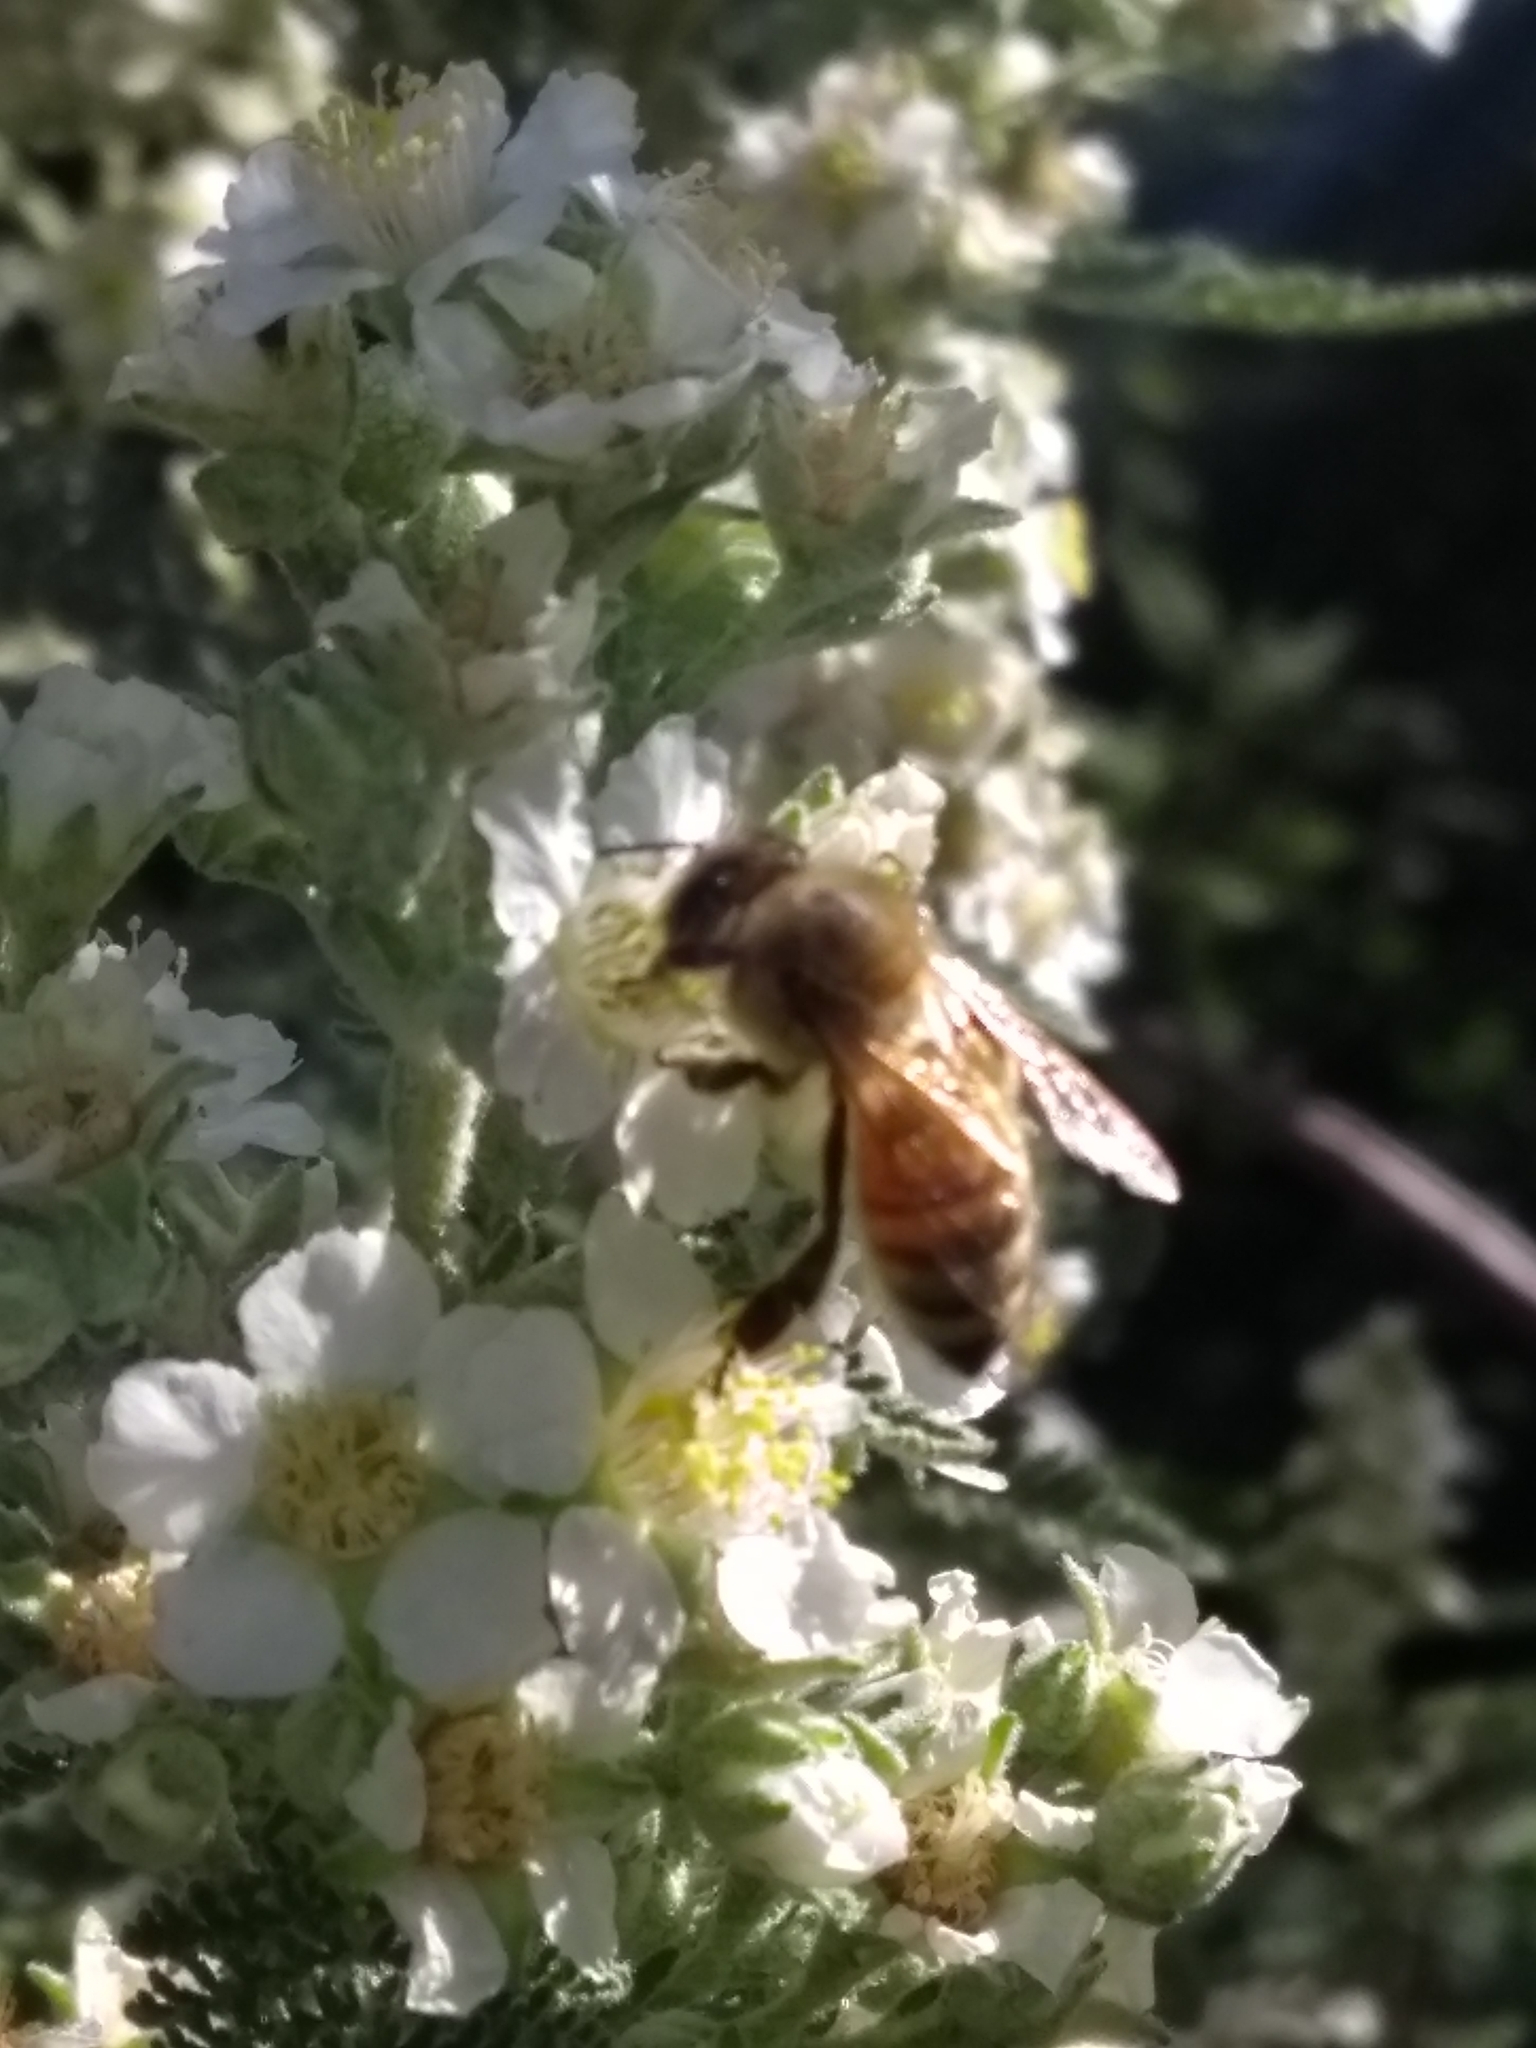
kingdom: Animalia
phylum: Arthropoda
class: Insecta
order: Hymenoptera
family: Apidae
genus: Apis
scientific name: Apis mellifera
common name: Honey bee
